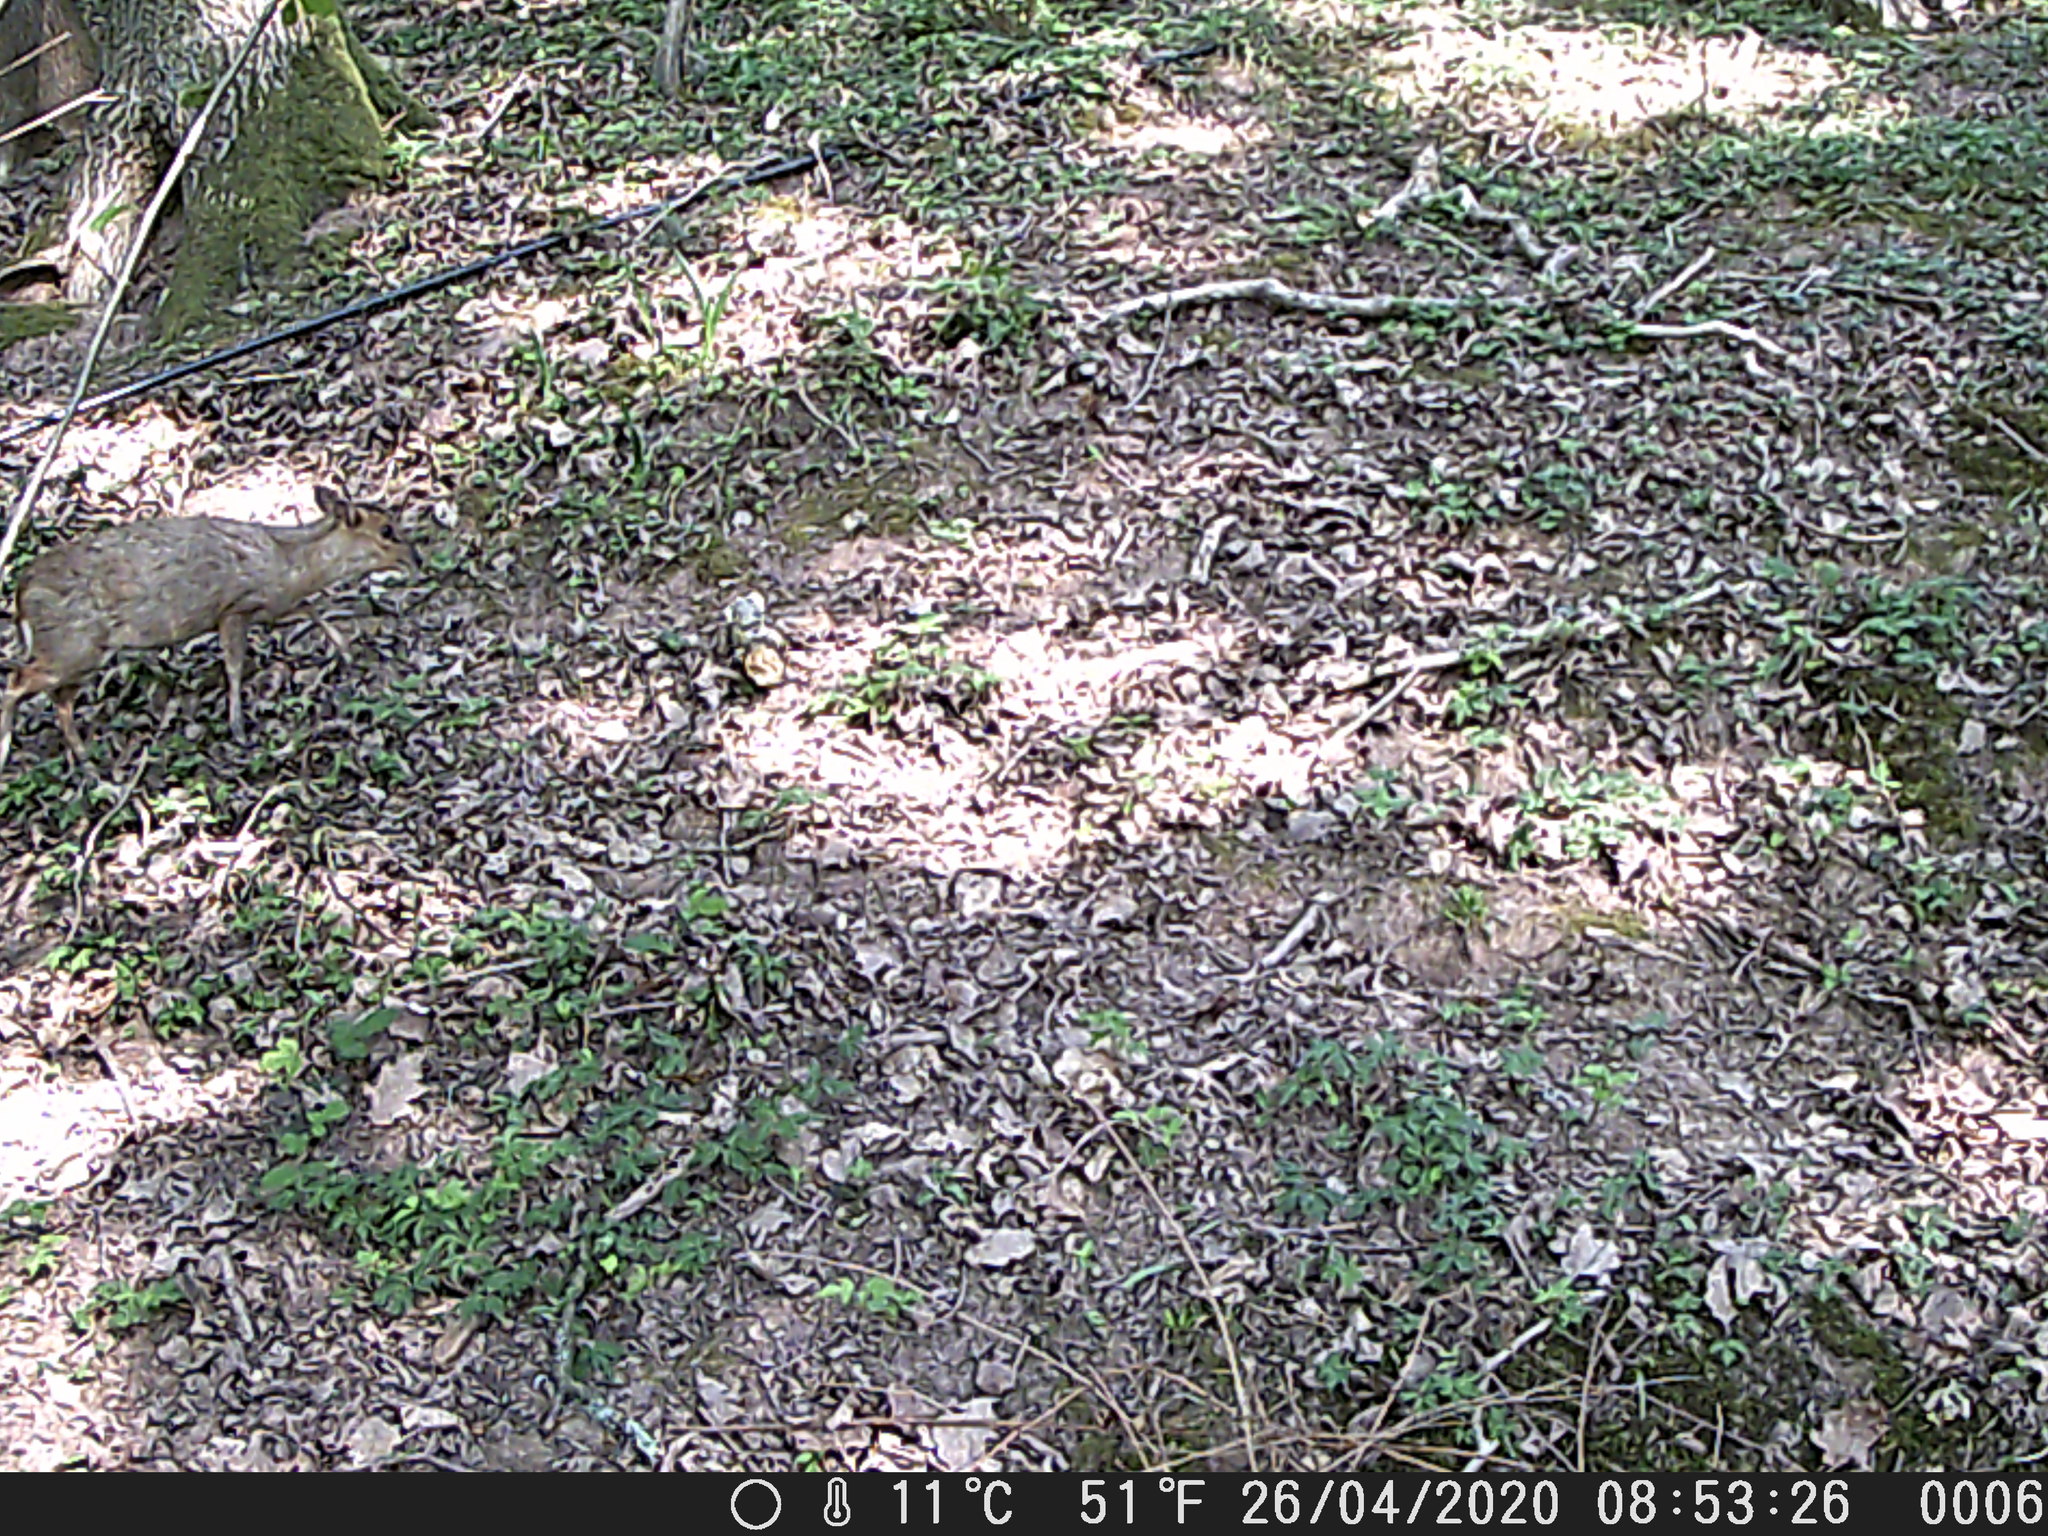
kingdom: Animalia
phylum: Chordata
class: Mammalia
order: Artiodactyla
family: Cervidae
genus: Muntiacus
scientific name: Muntiacus reevesi
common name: Reeves' muntjac
